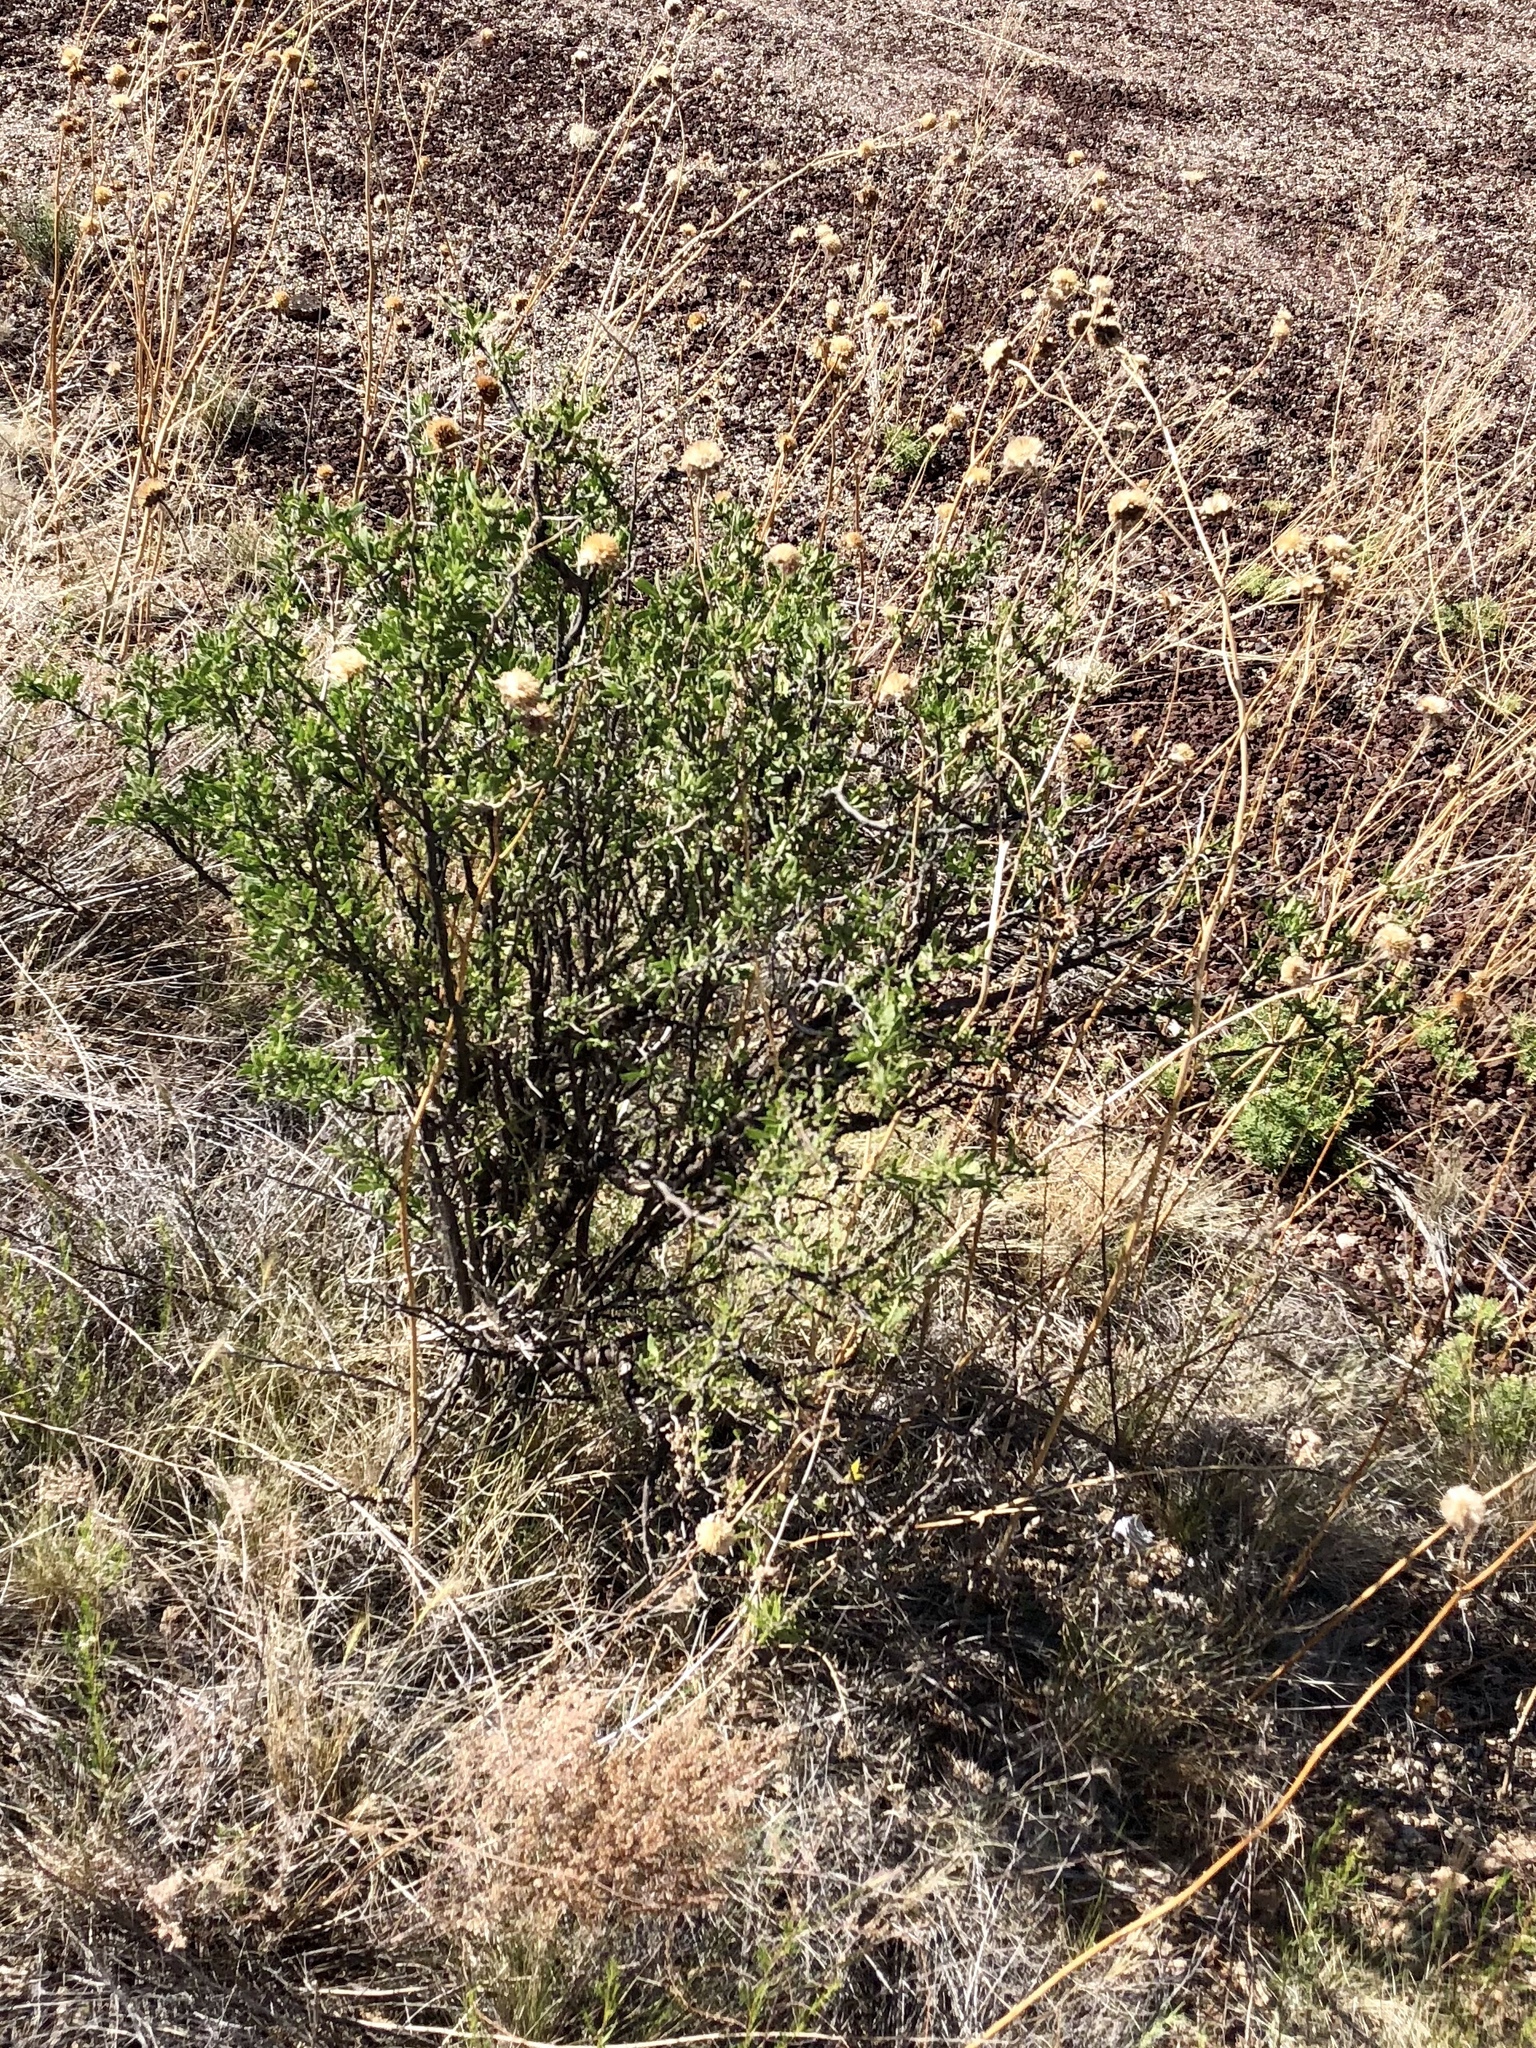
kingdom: Plantae
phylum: Tracheophyta
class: Magnoliopsida
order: Solanales
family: Solanaceae
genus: Lycium
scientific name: Lycium pallidum
